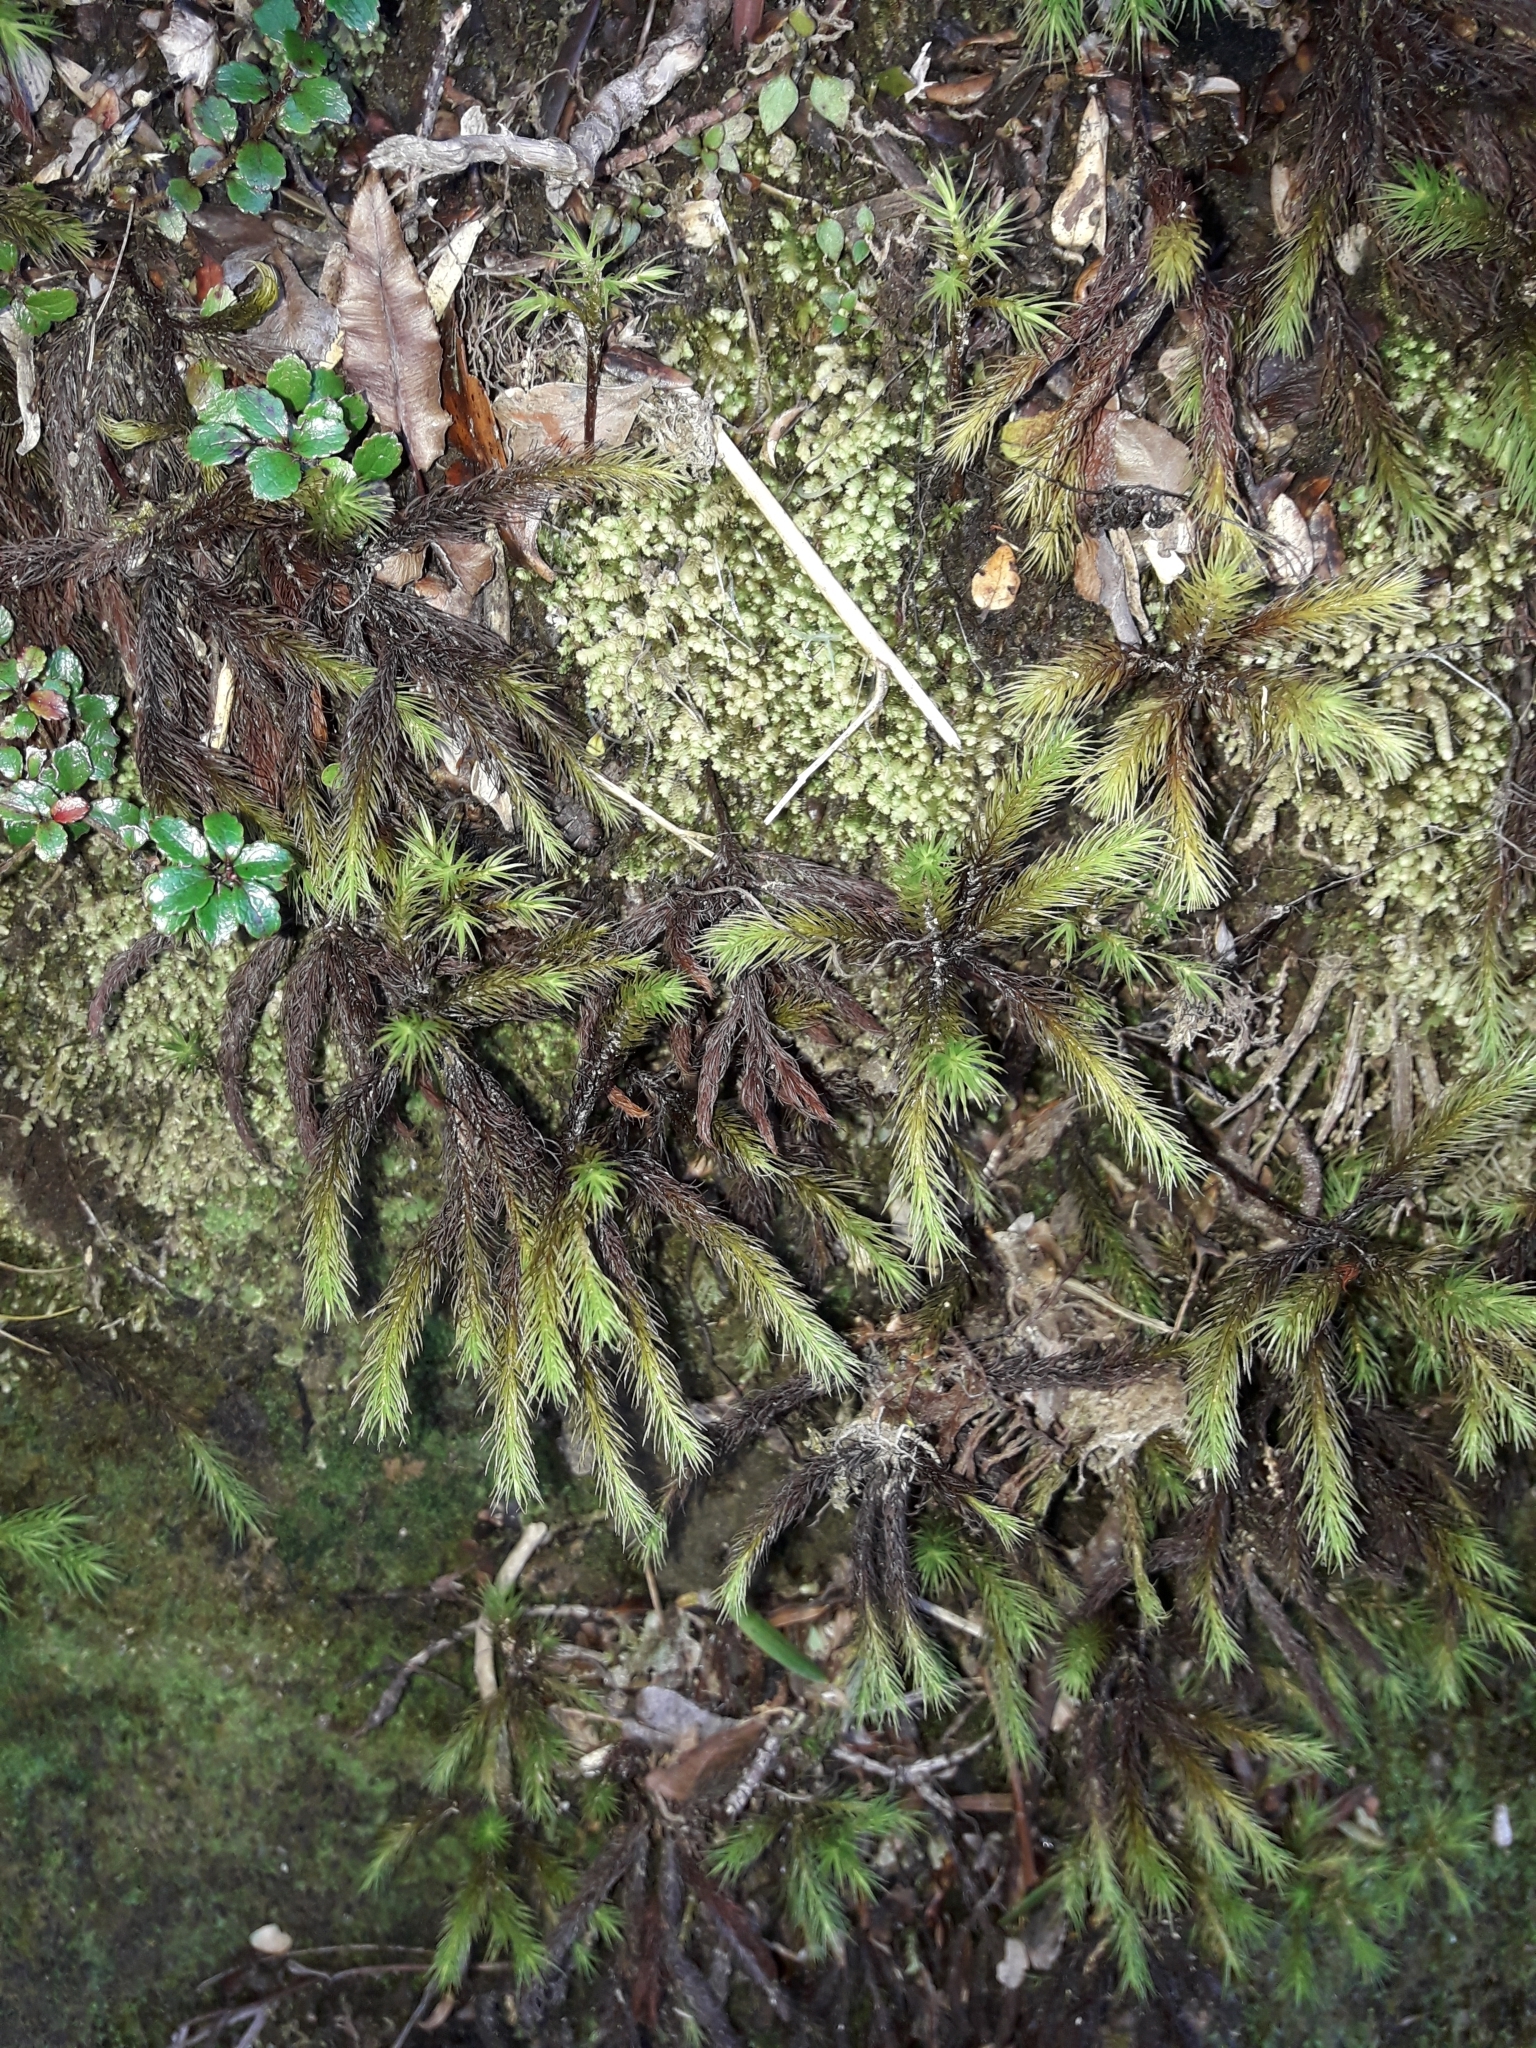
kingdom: Plantae
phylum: Bryophyta
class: Polytrichopsida
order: Polytrichales
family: Polytrichaceae
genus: Dendroligotrichum
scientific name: Dendroligotrichum tongariroense
